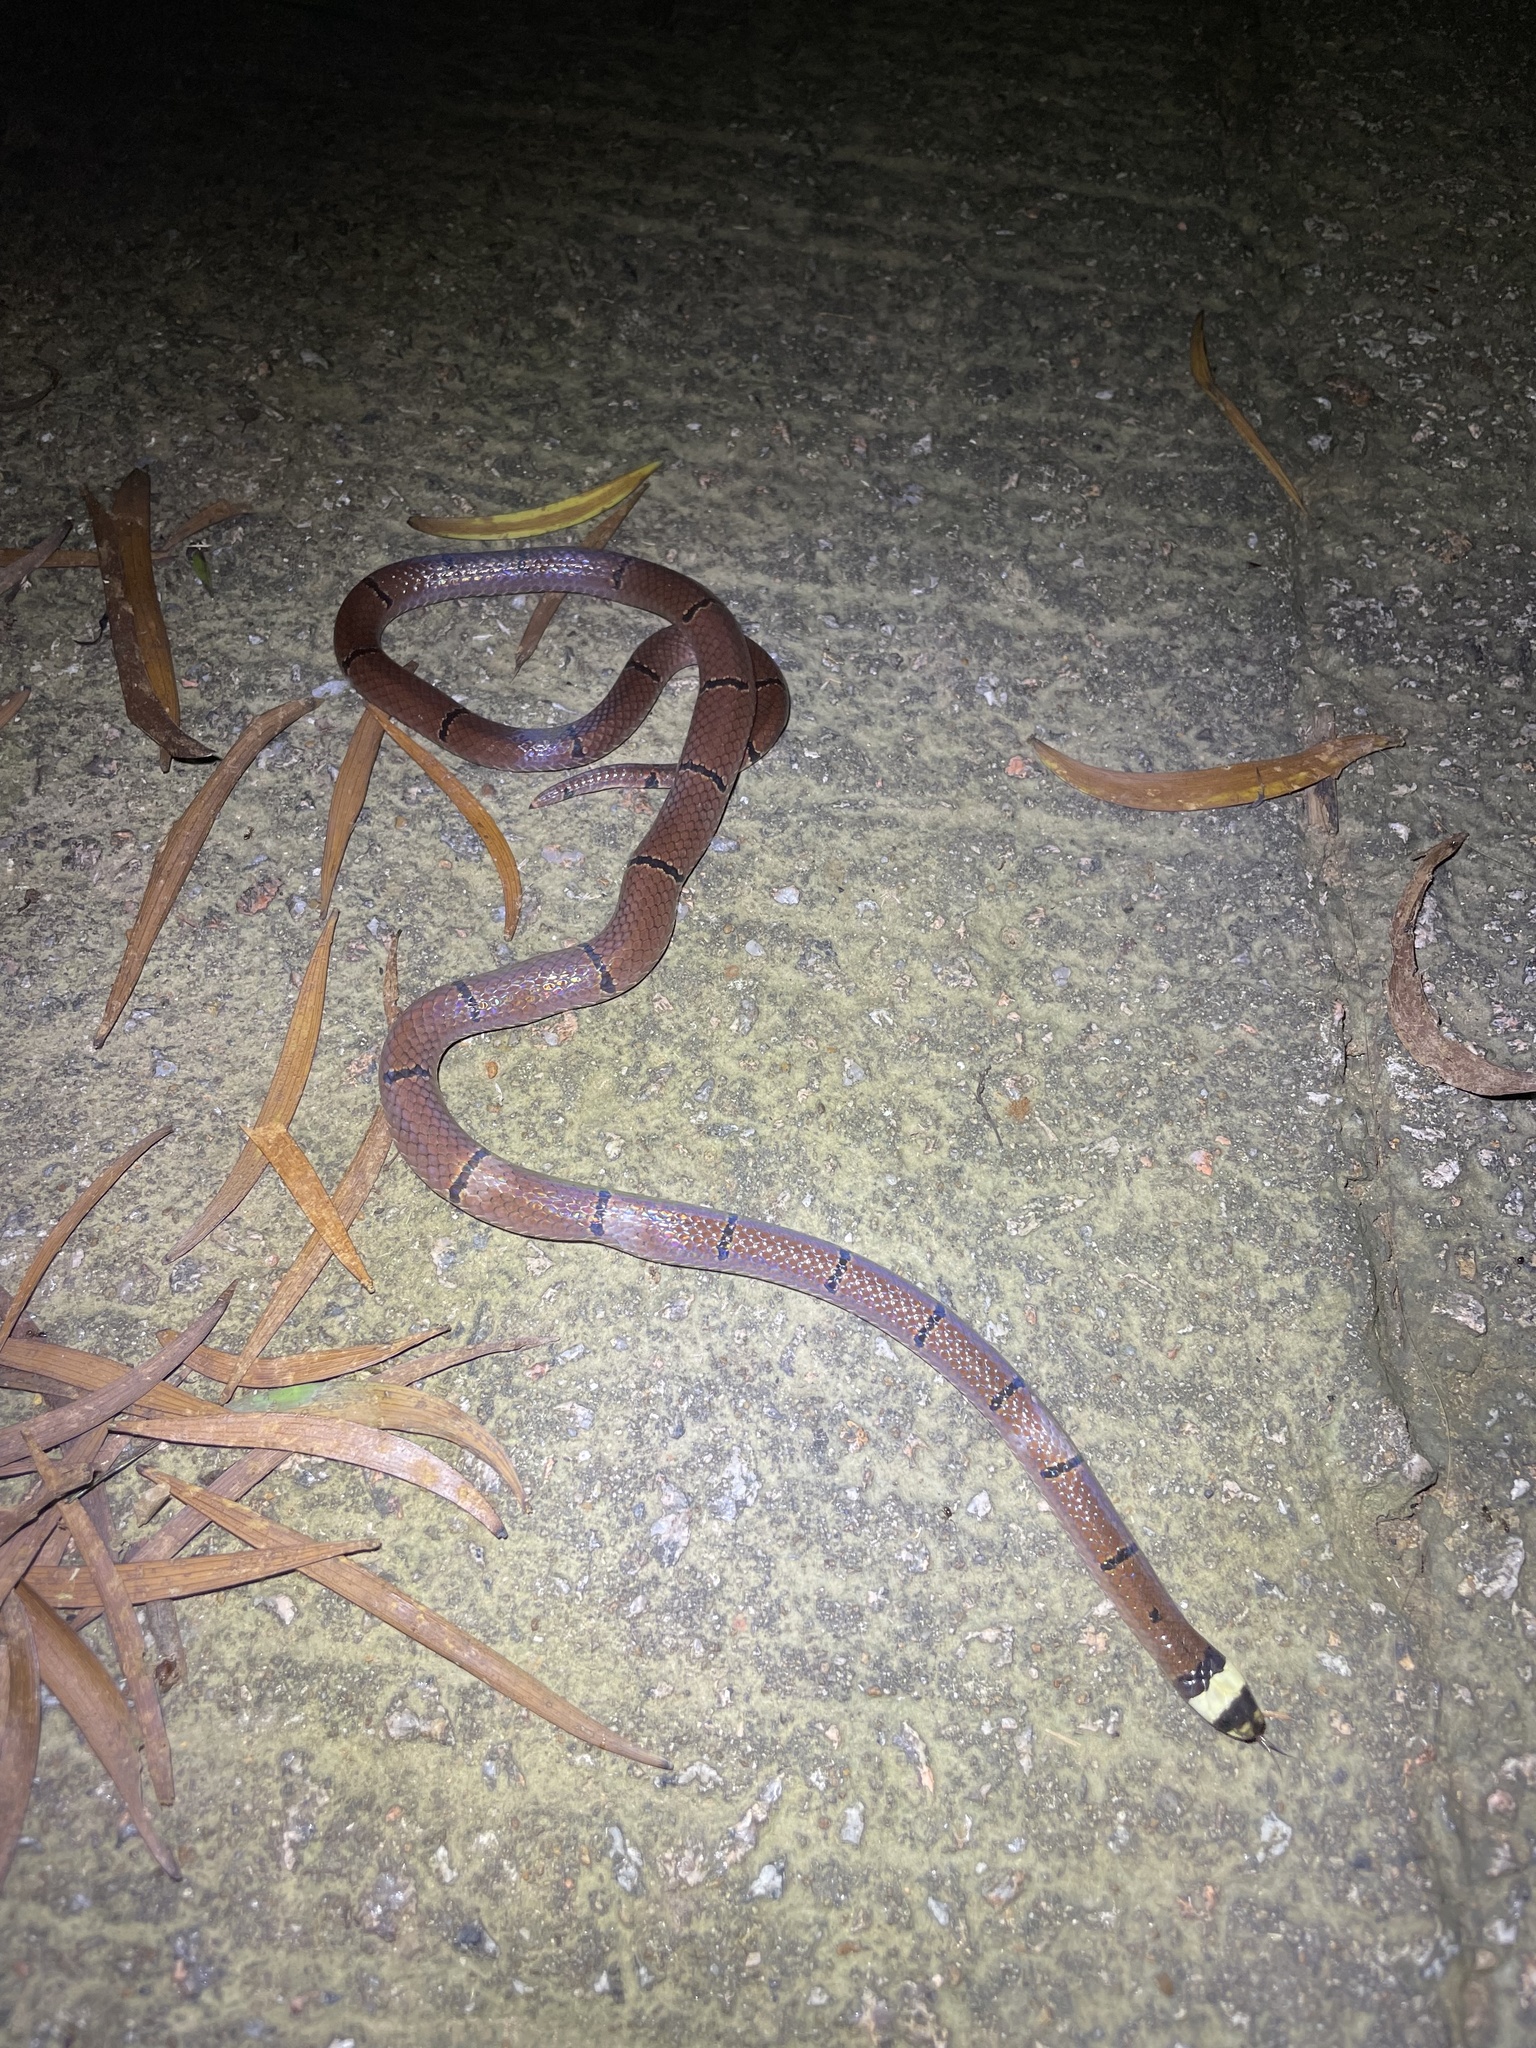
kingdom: Animalia
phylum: Chordata
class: Squamata
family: Elapidae
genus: Sinomicrurus
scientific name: Sinomicrurus
